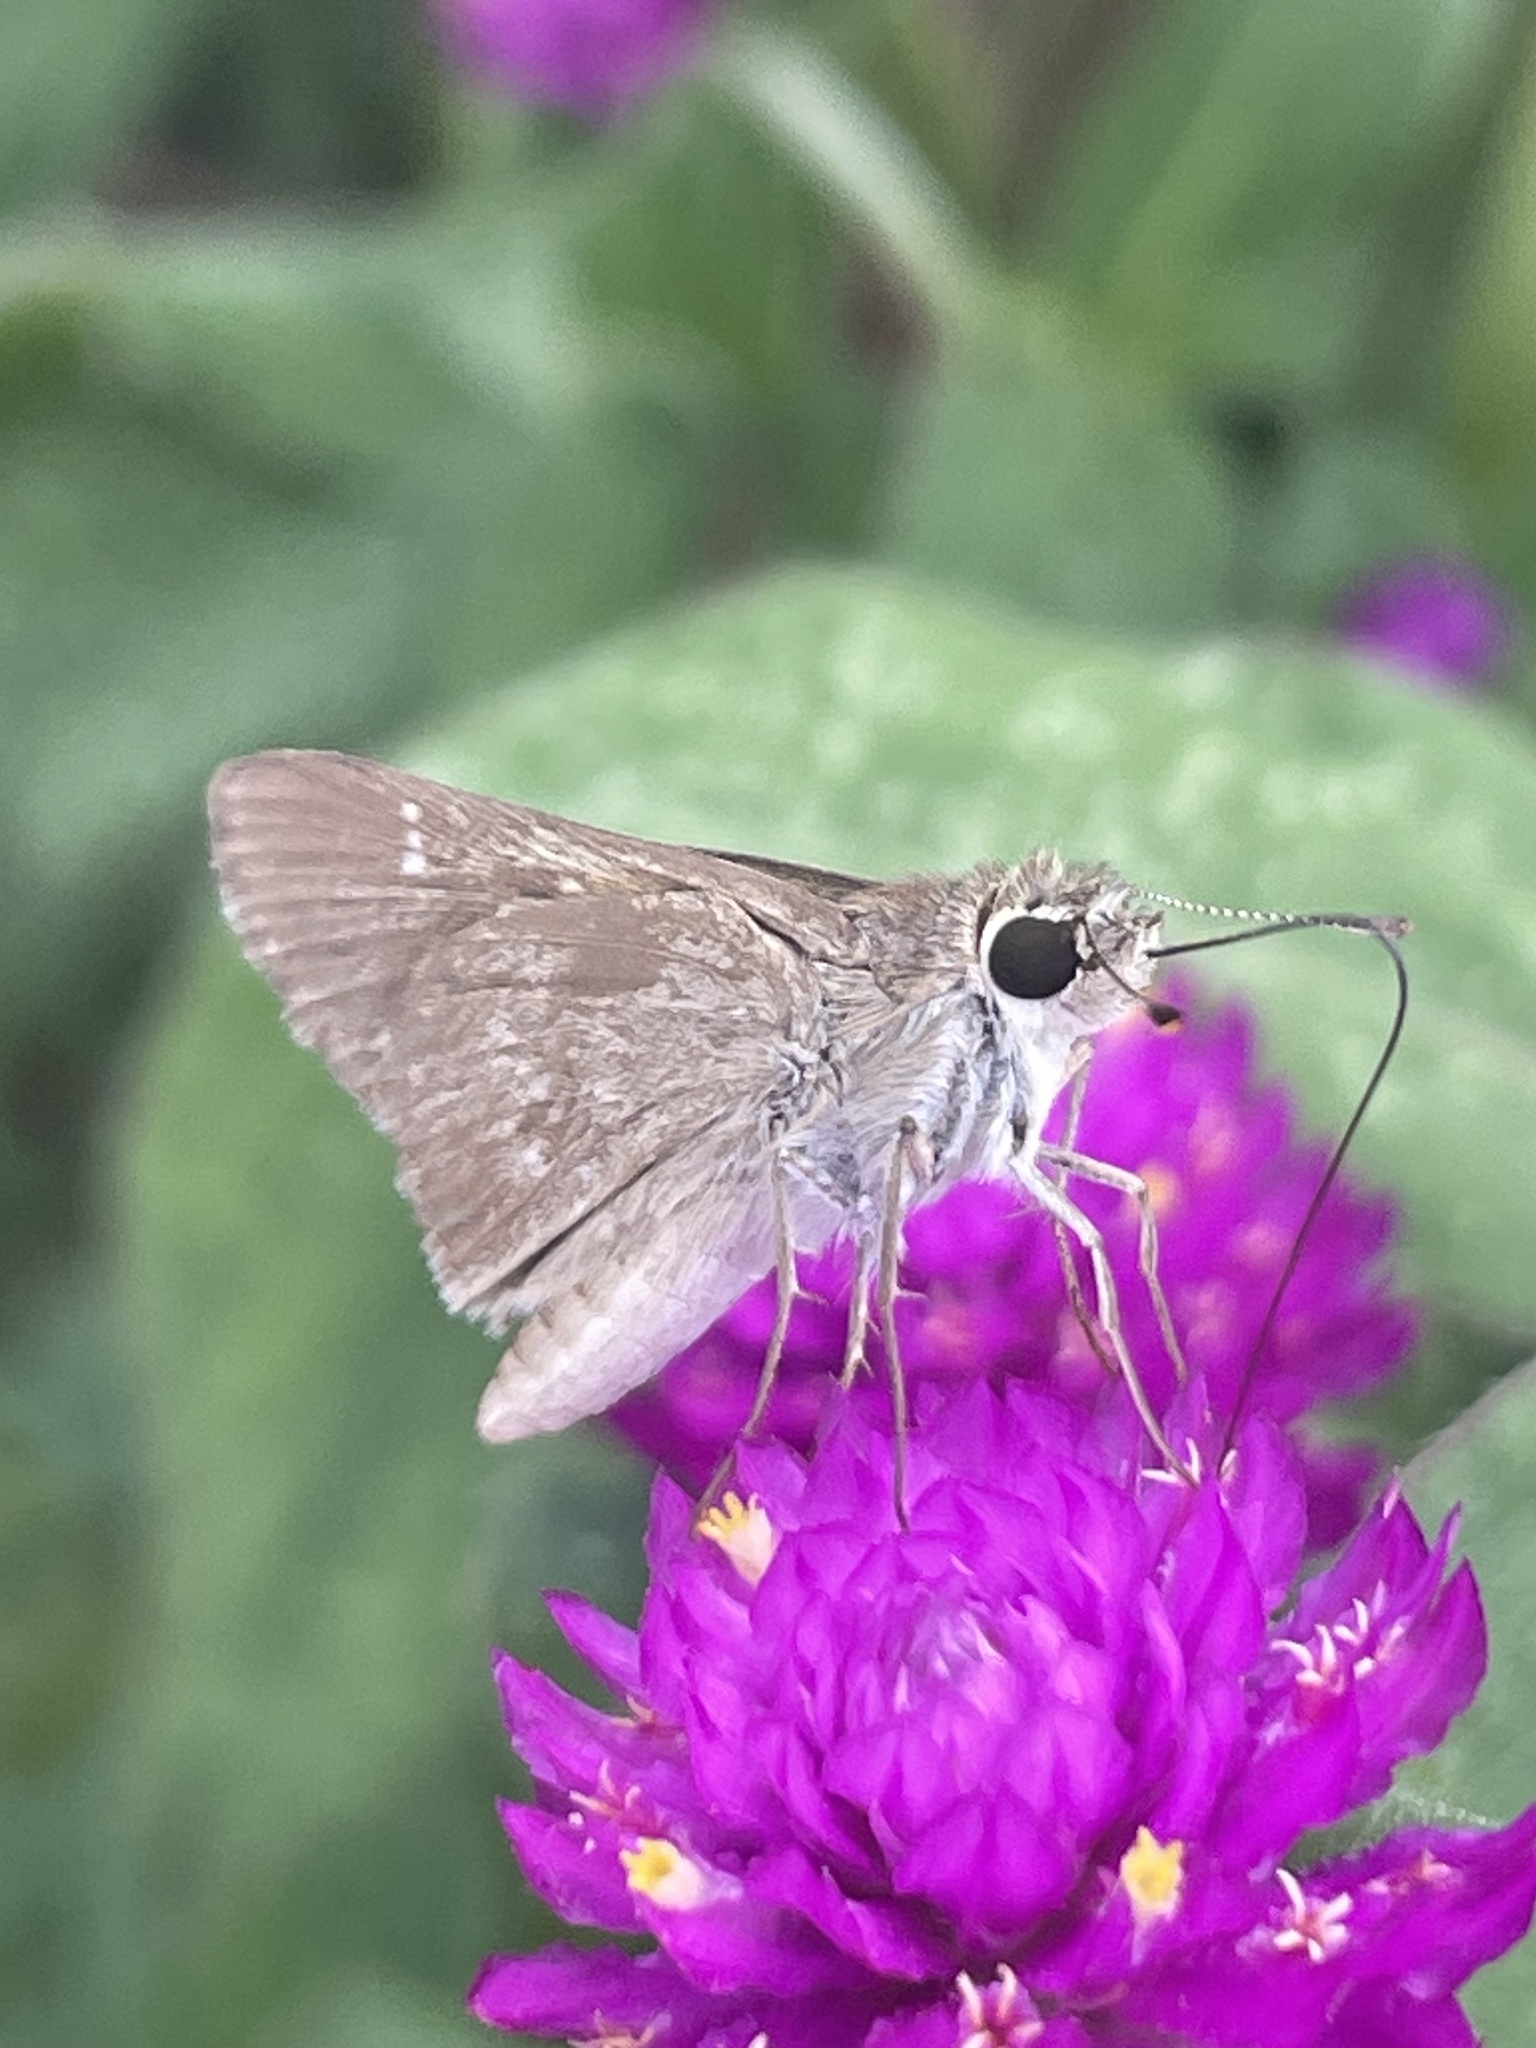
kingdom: Animalia
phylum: Arthropoda
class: Insecta
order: Lepidoptera
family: Hesperiidae
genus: Lerodea
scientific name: Lerodea eufala
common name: Eufala skipper
